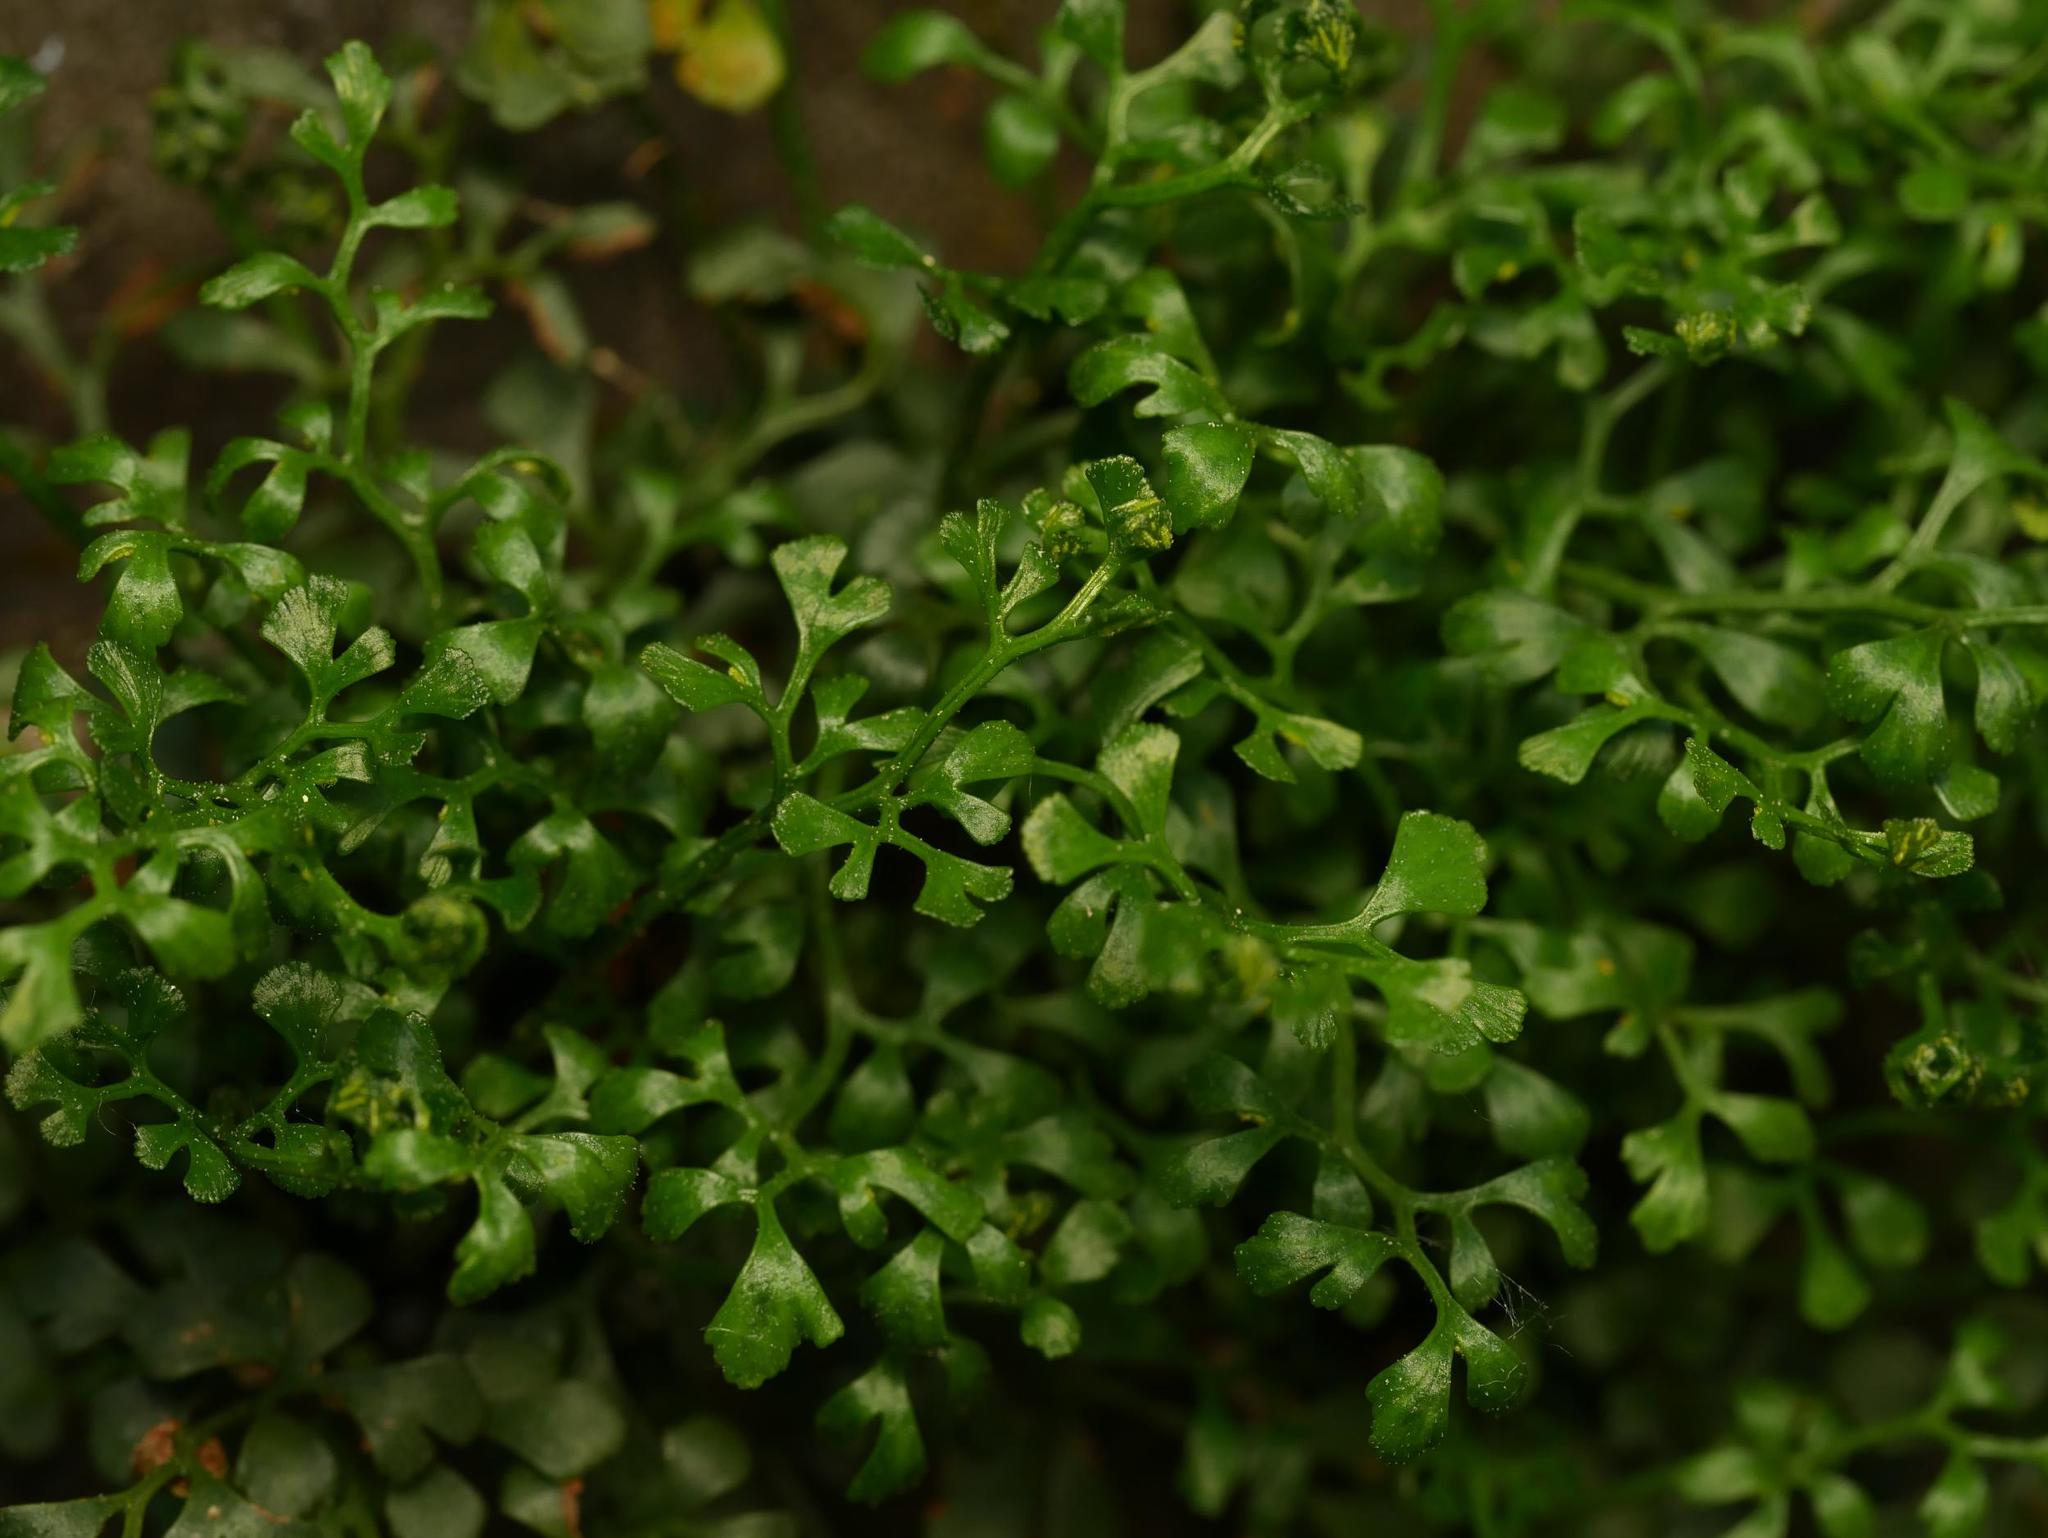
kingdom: Plantae
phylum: Tracheophyta
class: Polypodiopsida
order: Polypodiales
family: Aspleniaceae
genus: Asplenium
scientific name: Asplenium ruta-muraria
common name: Wall-rue
